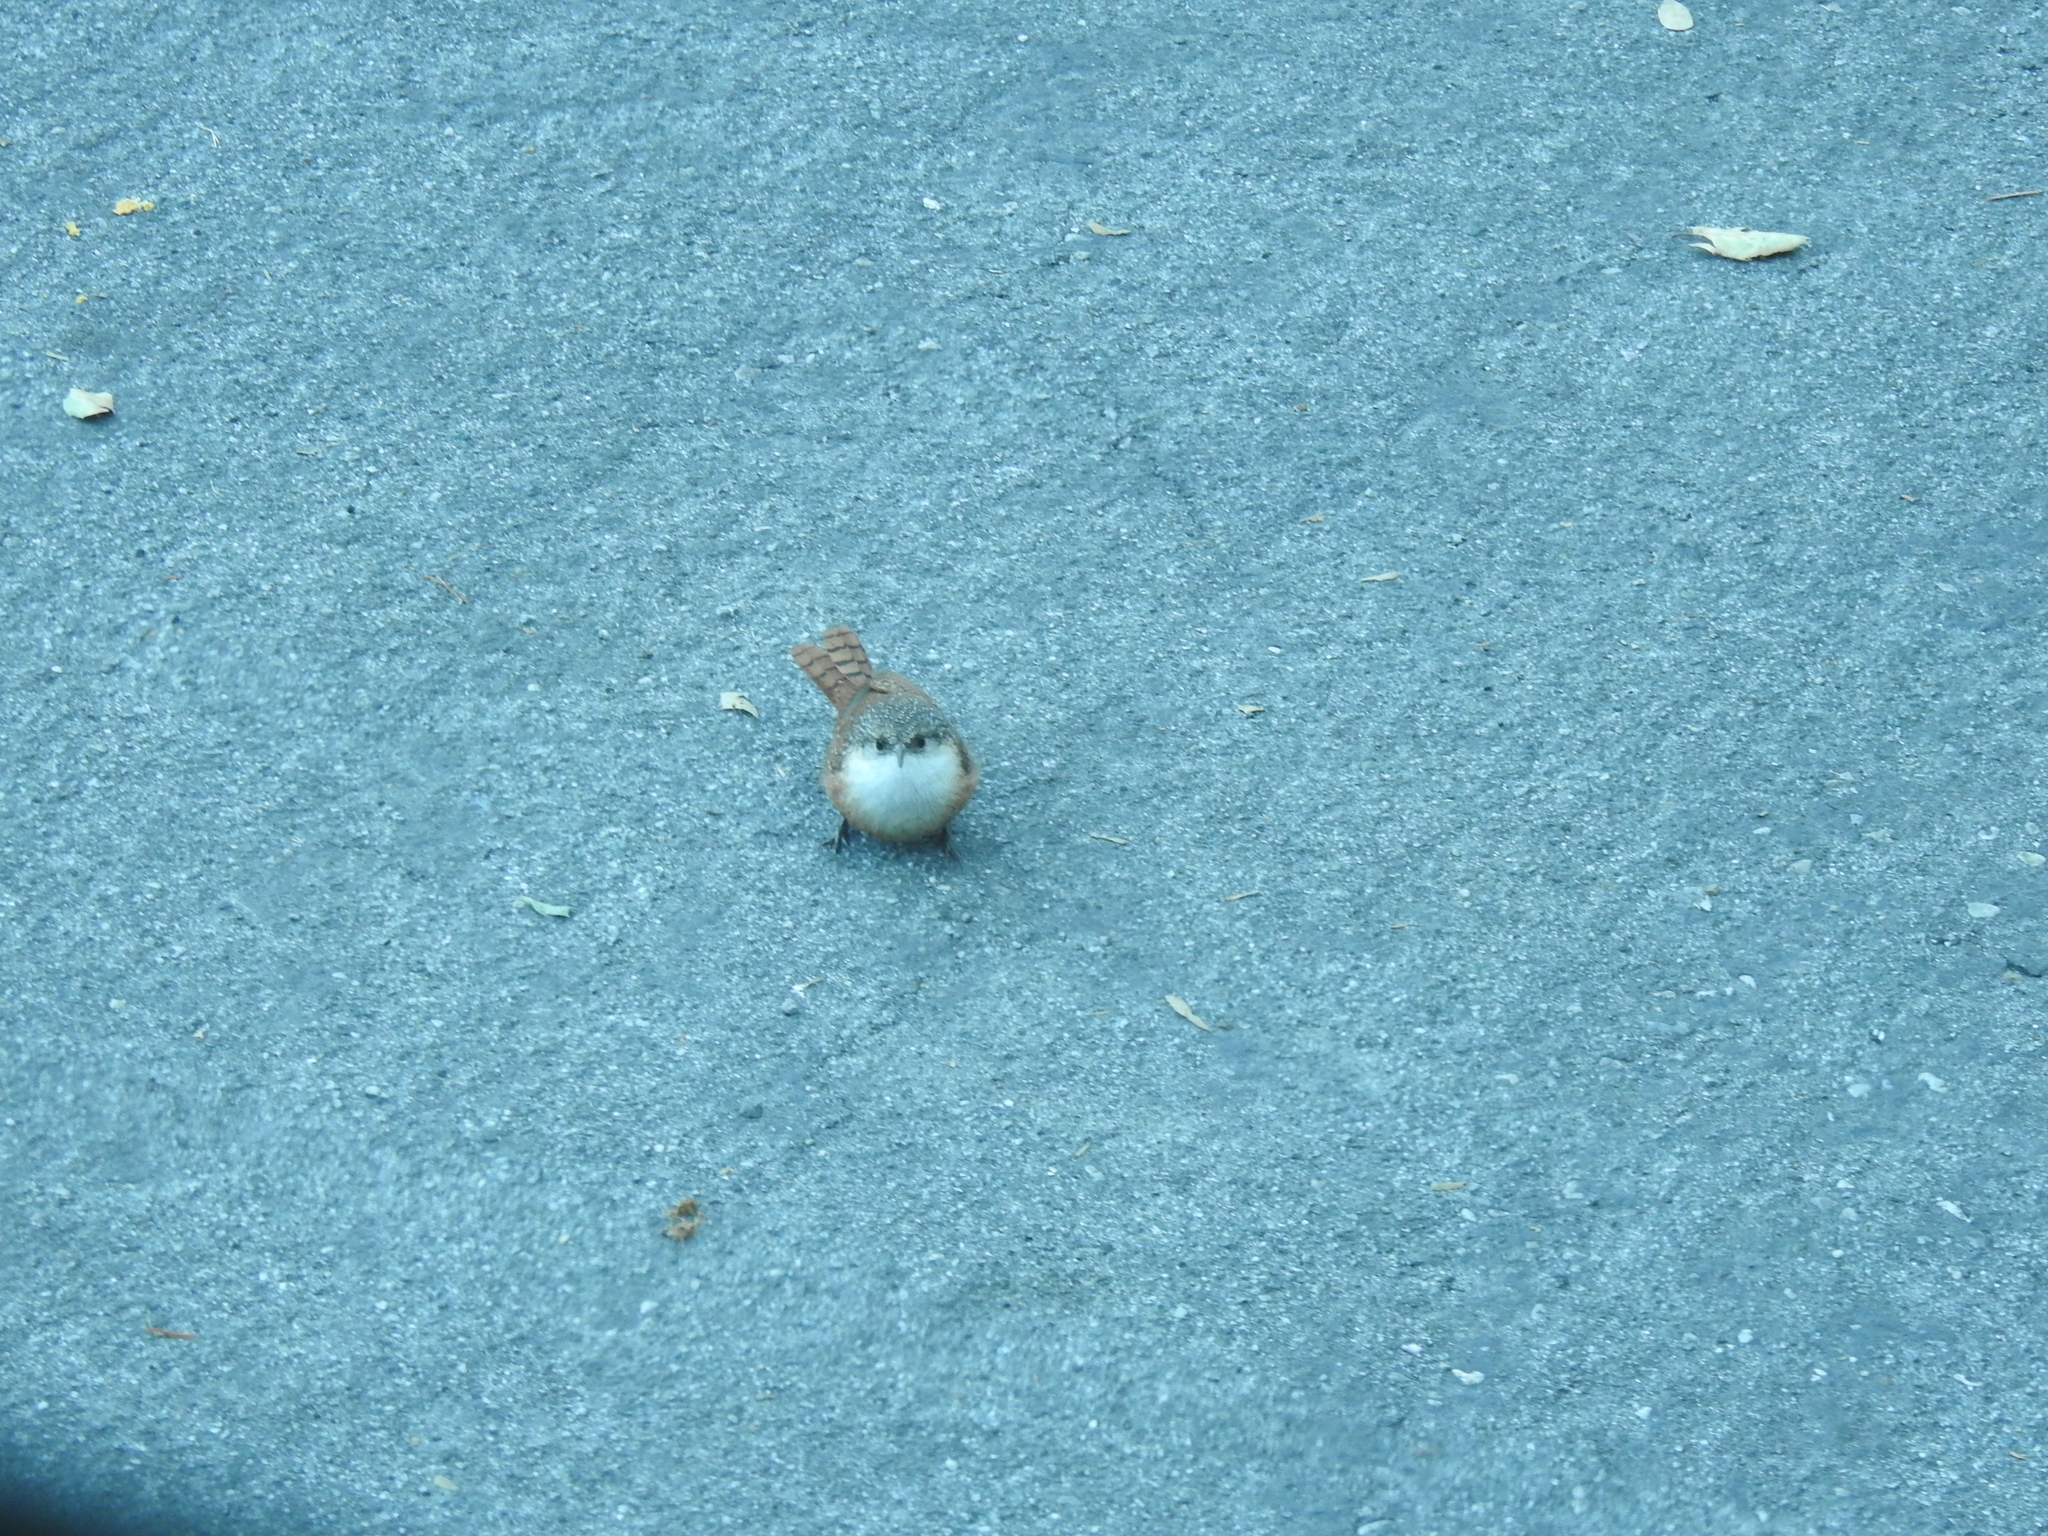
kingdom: Animalia
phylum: Chordata
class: Aves
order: Passeriformes
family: Troglodytidae
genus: Catherpes
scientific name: Catherpes mexicanus
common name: Canyon wren
